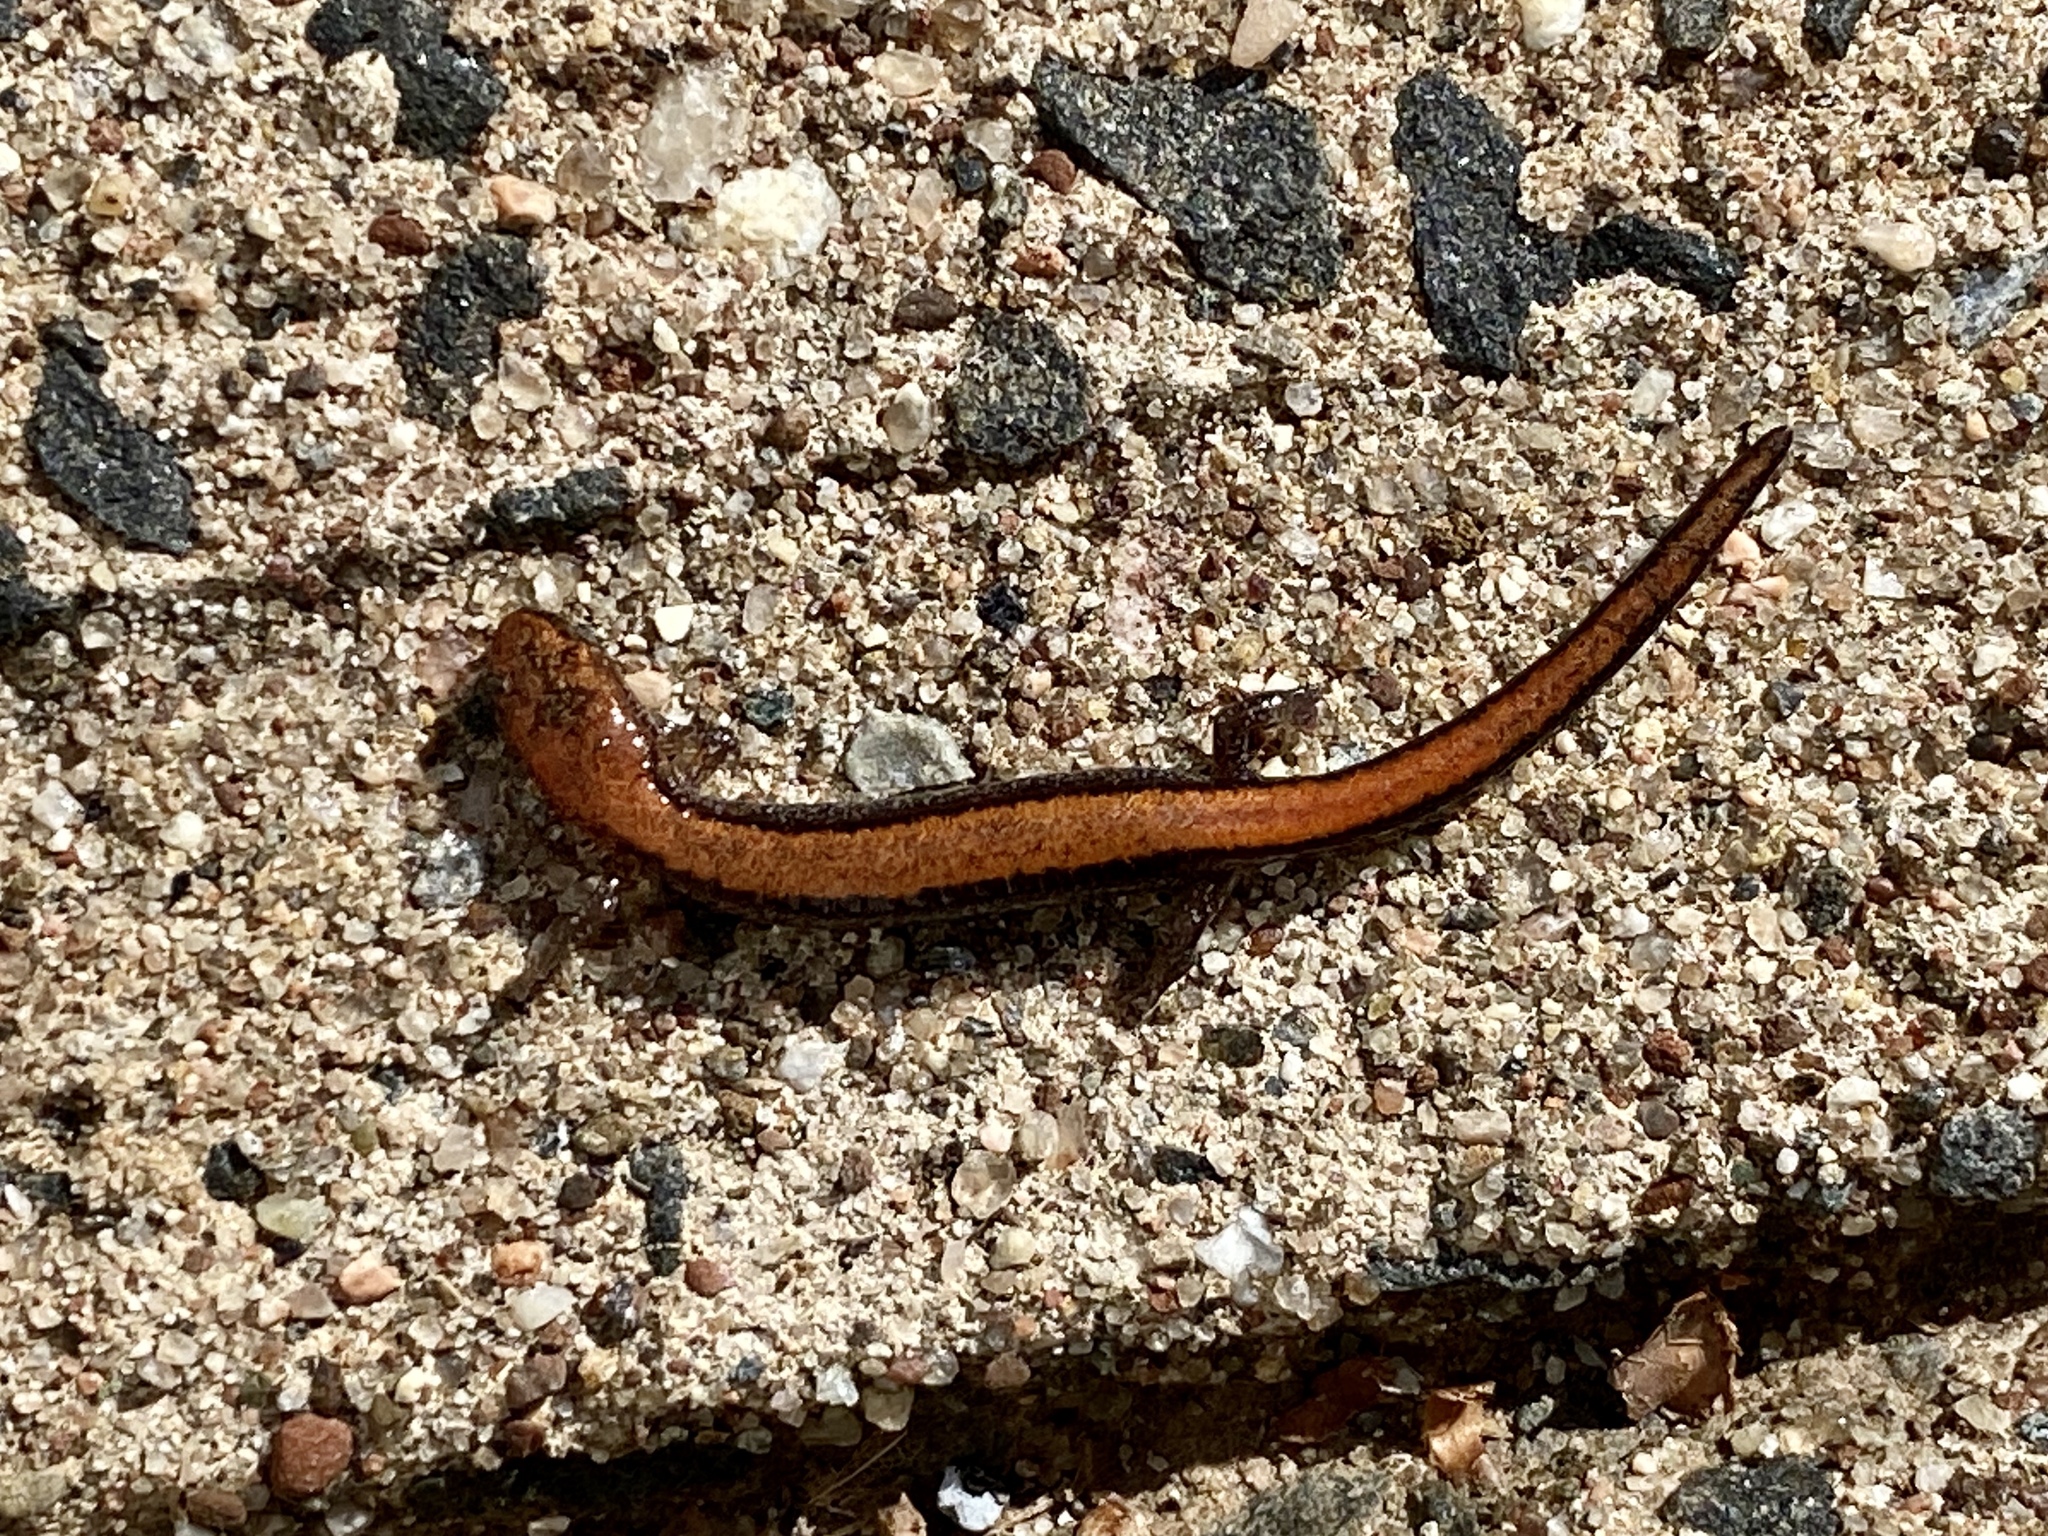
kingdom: Animalia
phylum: Chordata
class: Amphibia
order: Caudata
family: Plethodontidae
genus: Plethodon
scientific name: Plethodon cinereus
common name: Redback salamander
